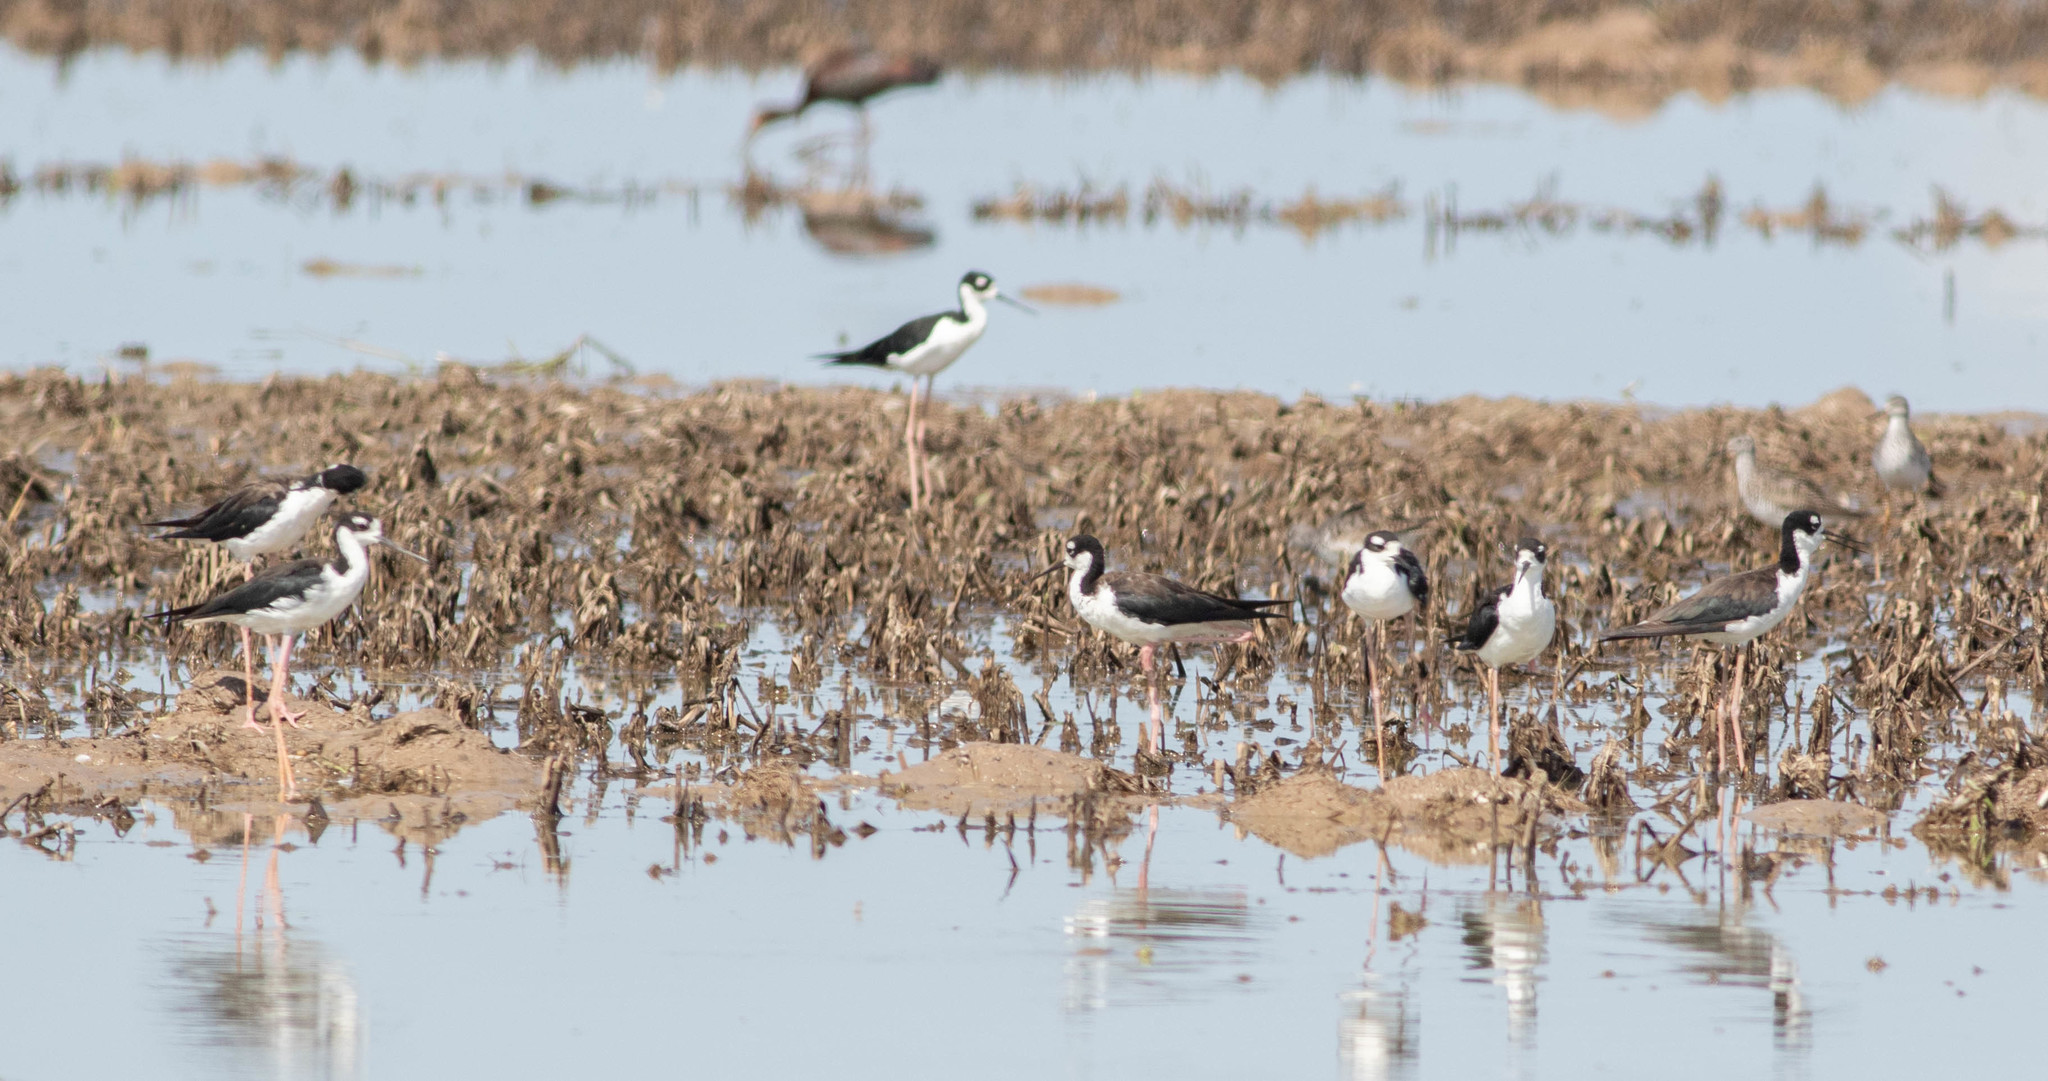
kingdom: Animalia
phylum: Chordata
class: Aves
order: Charadriiformes
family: Recurvirostridae
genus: Himantopus
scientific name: Himantopus mexicanus
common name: Black-necked stilt
